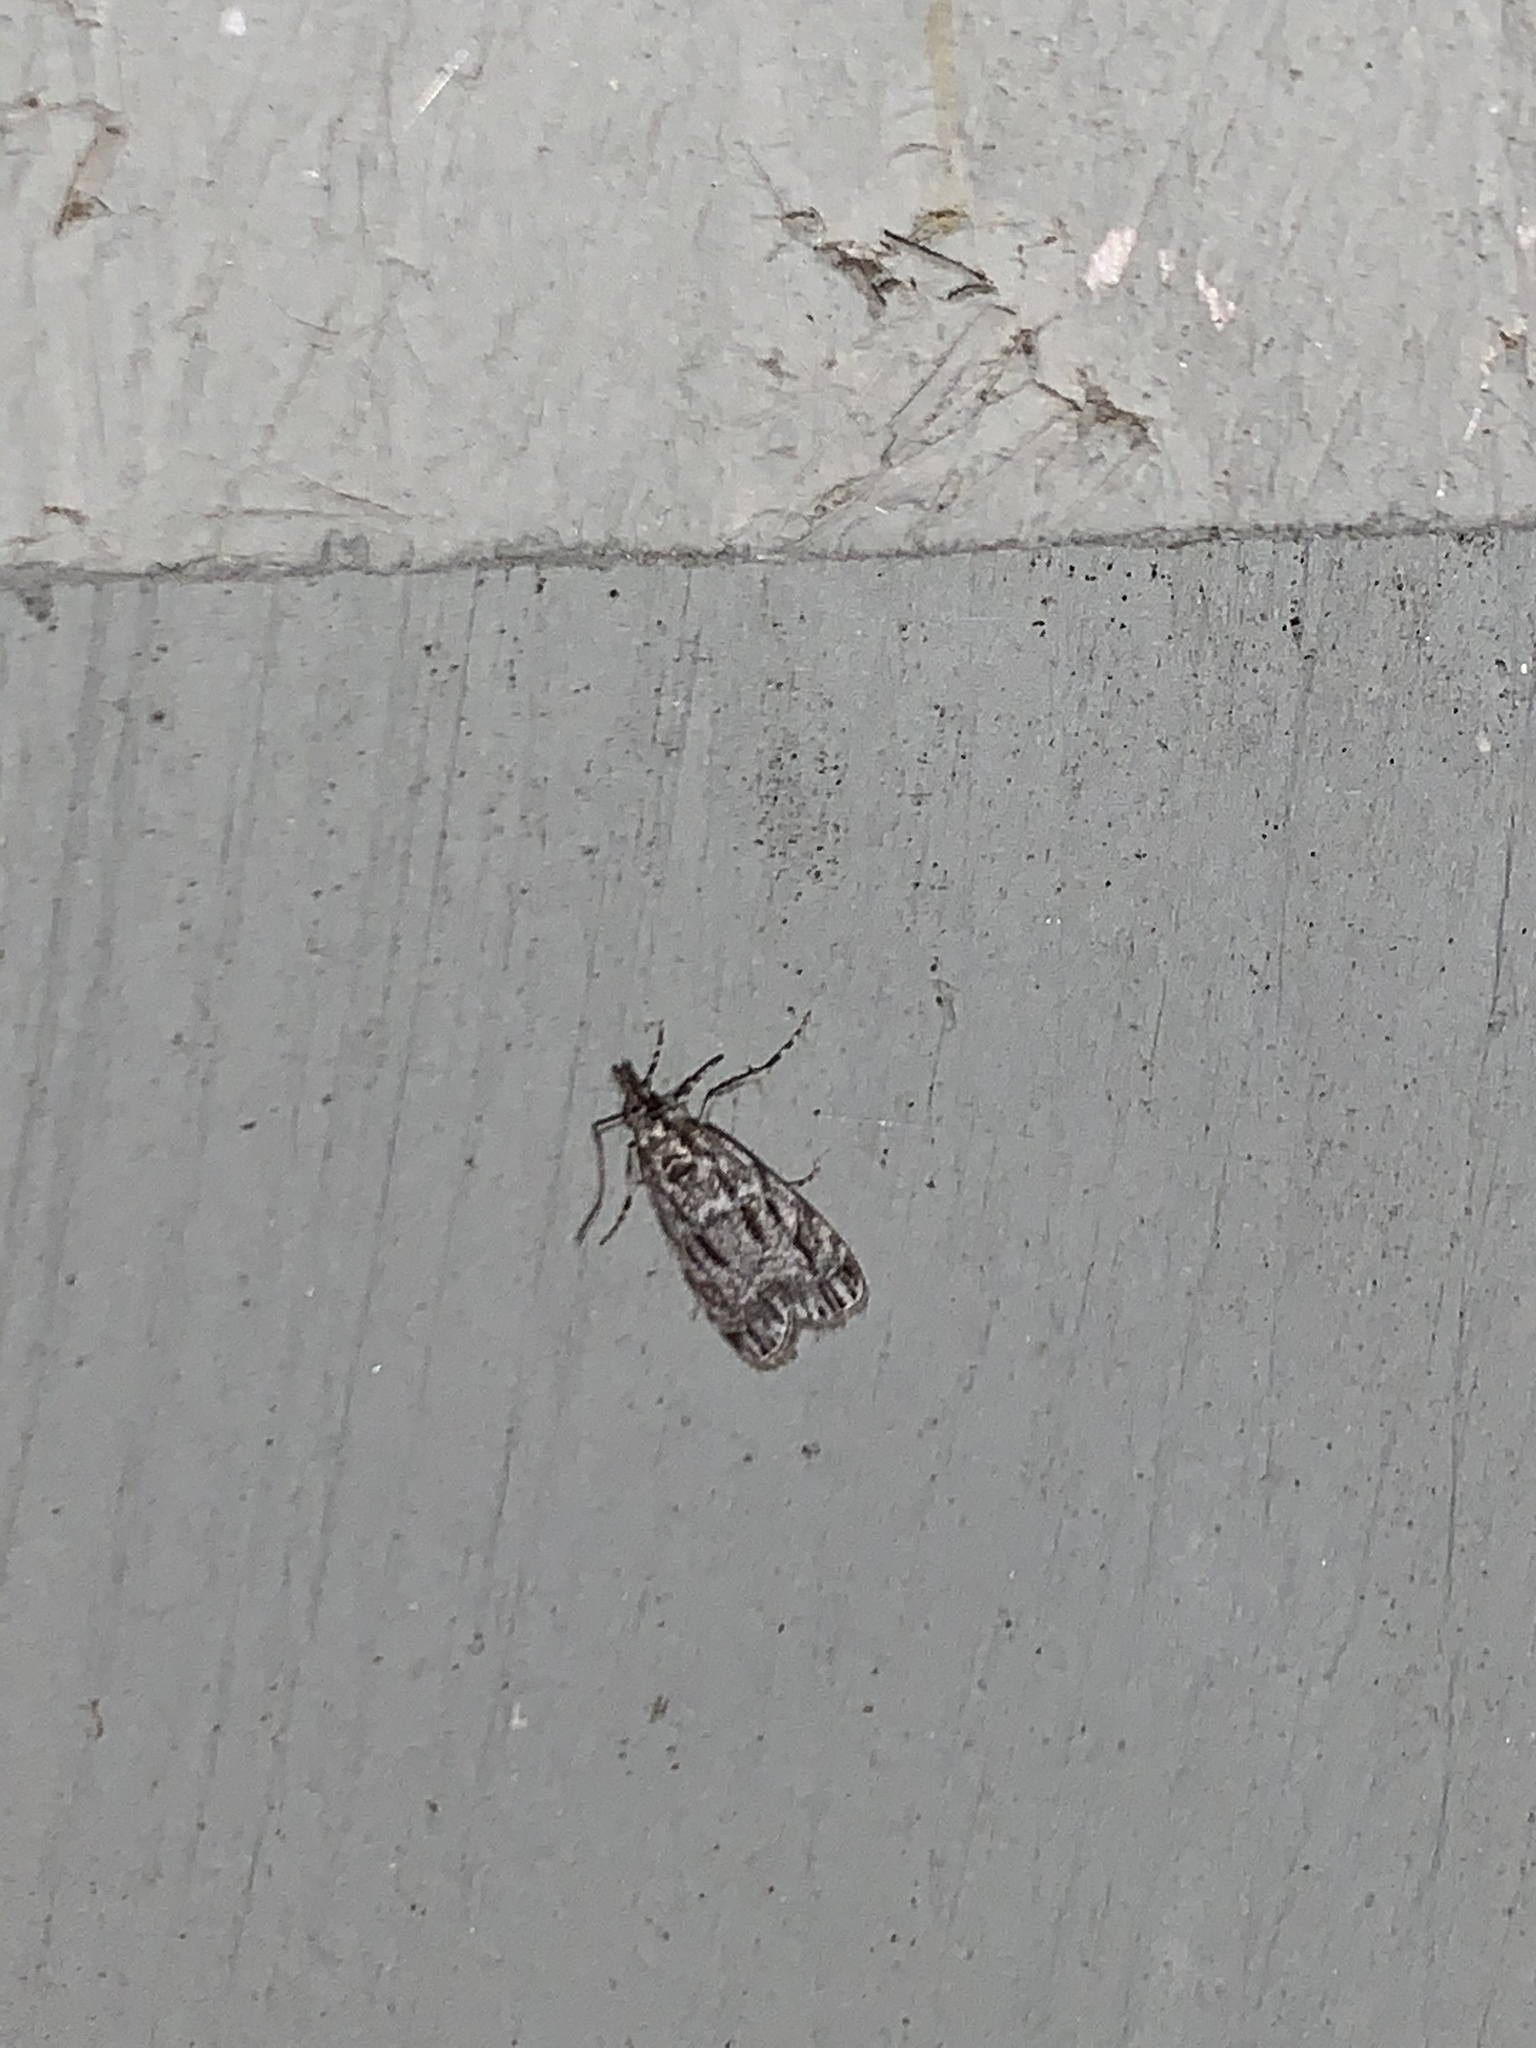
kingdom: Animalia
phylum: Arthropoda
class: Insecta
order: Lepidoptera
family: Crambidae
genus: Eudonia
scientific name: Eudonia strigalis
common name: Striped eudonia moth
